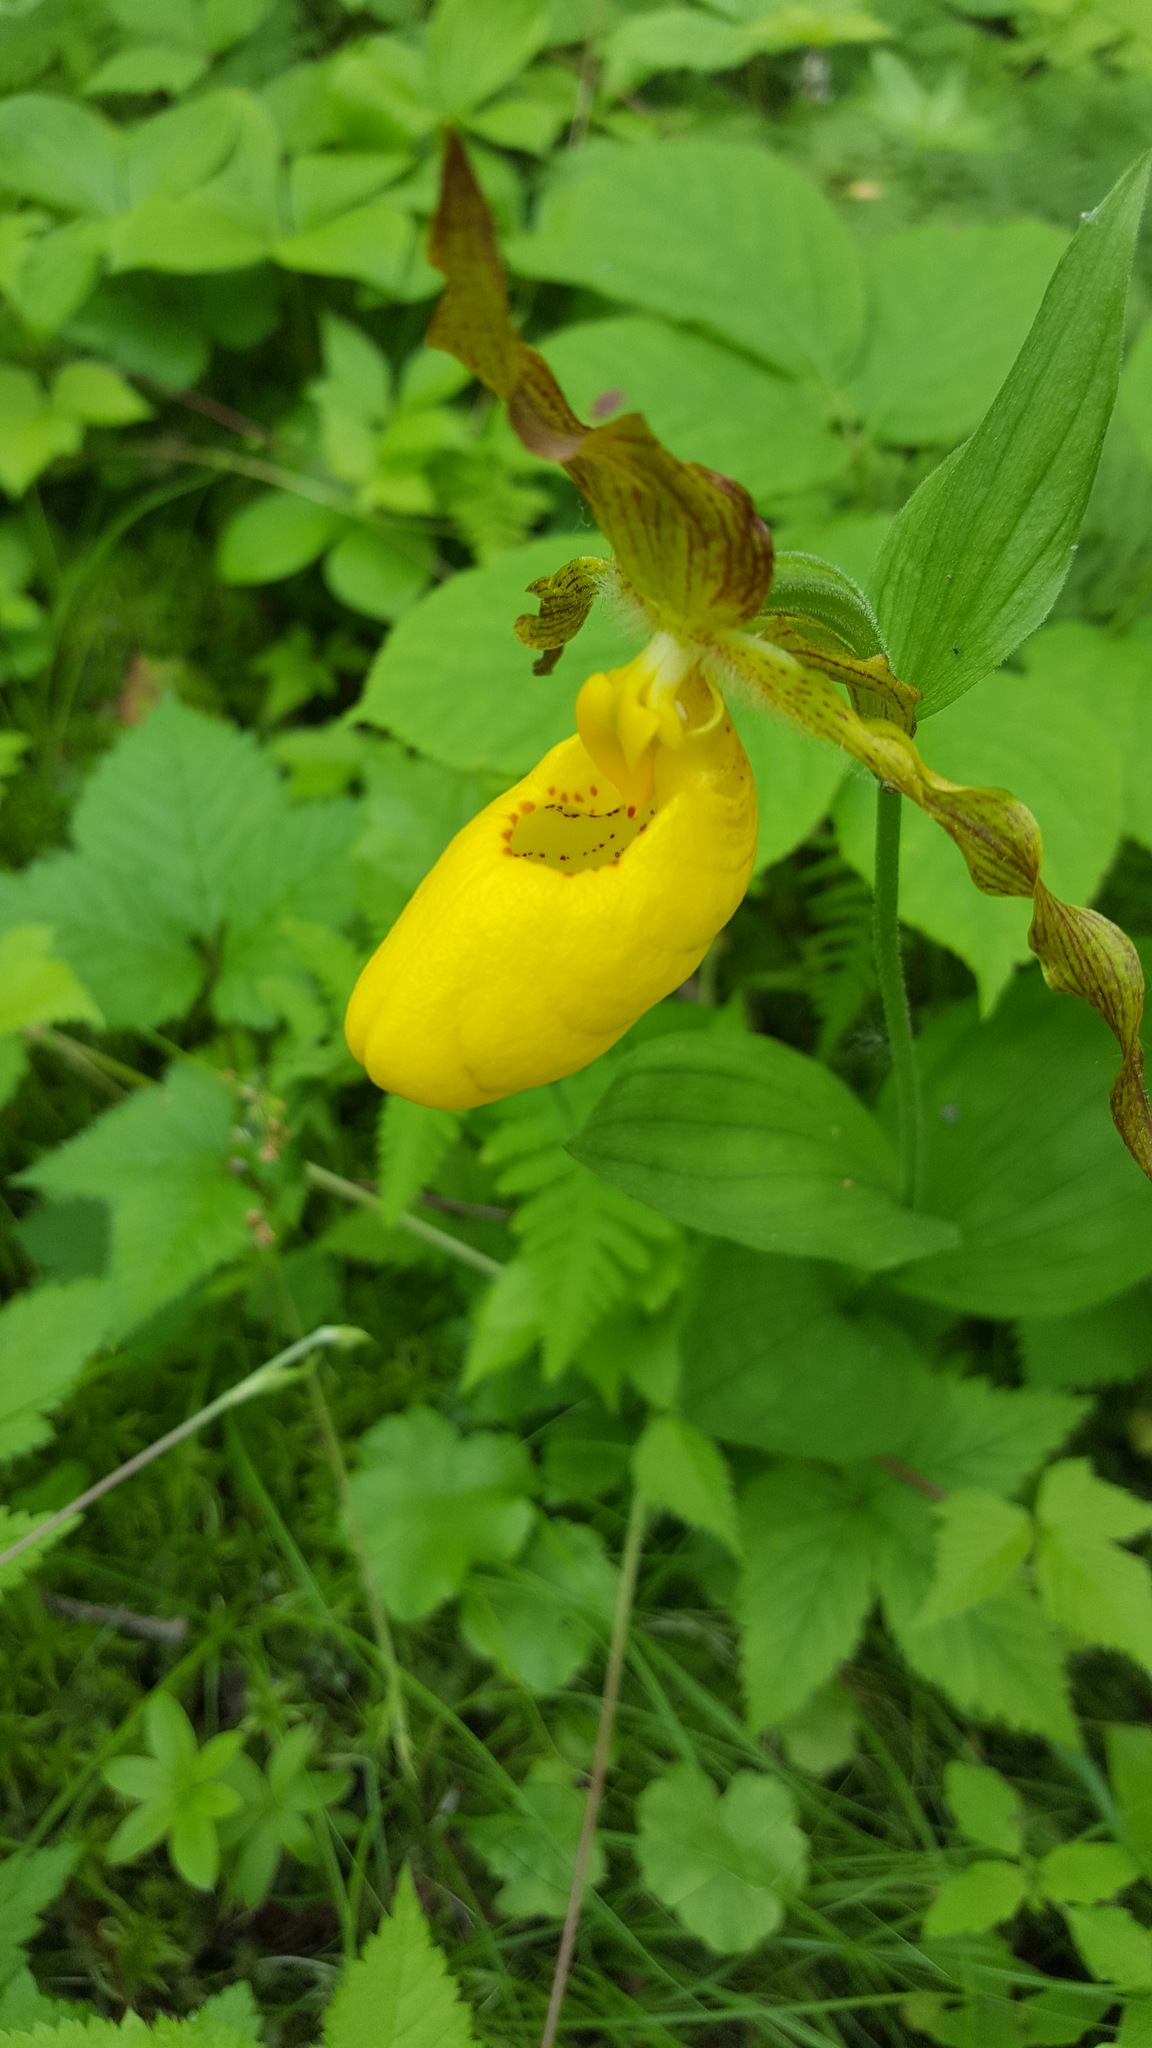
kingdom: Plantae
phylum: Tracheophyta
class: Liliopsida
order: Asparagales
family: Orchidaceae
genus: Cypripedium
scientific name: Cypripedium parviflorum
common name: American yellow lady's-slipper
